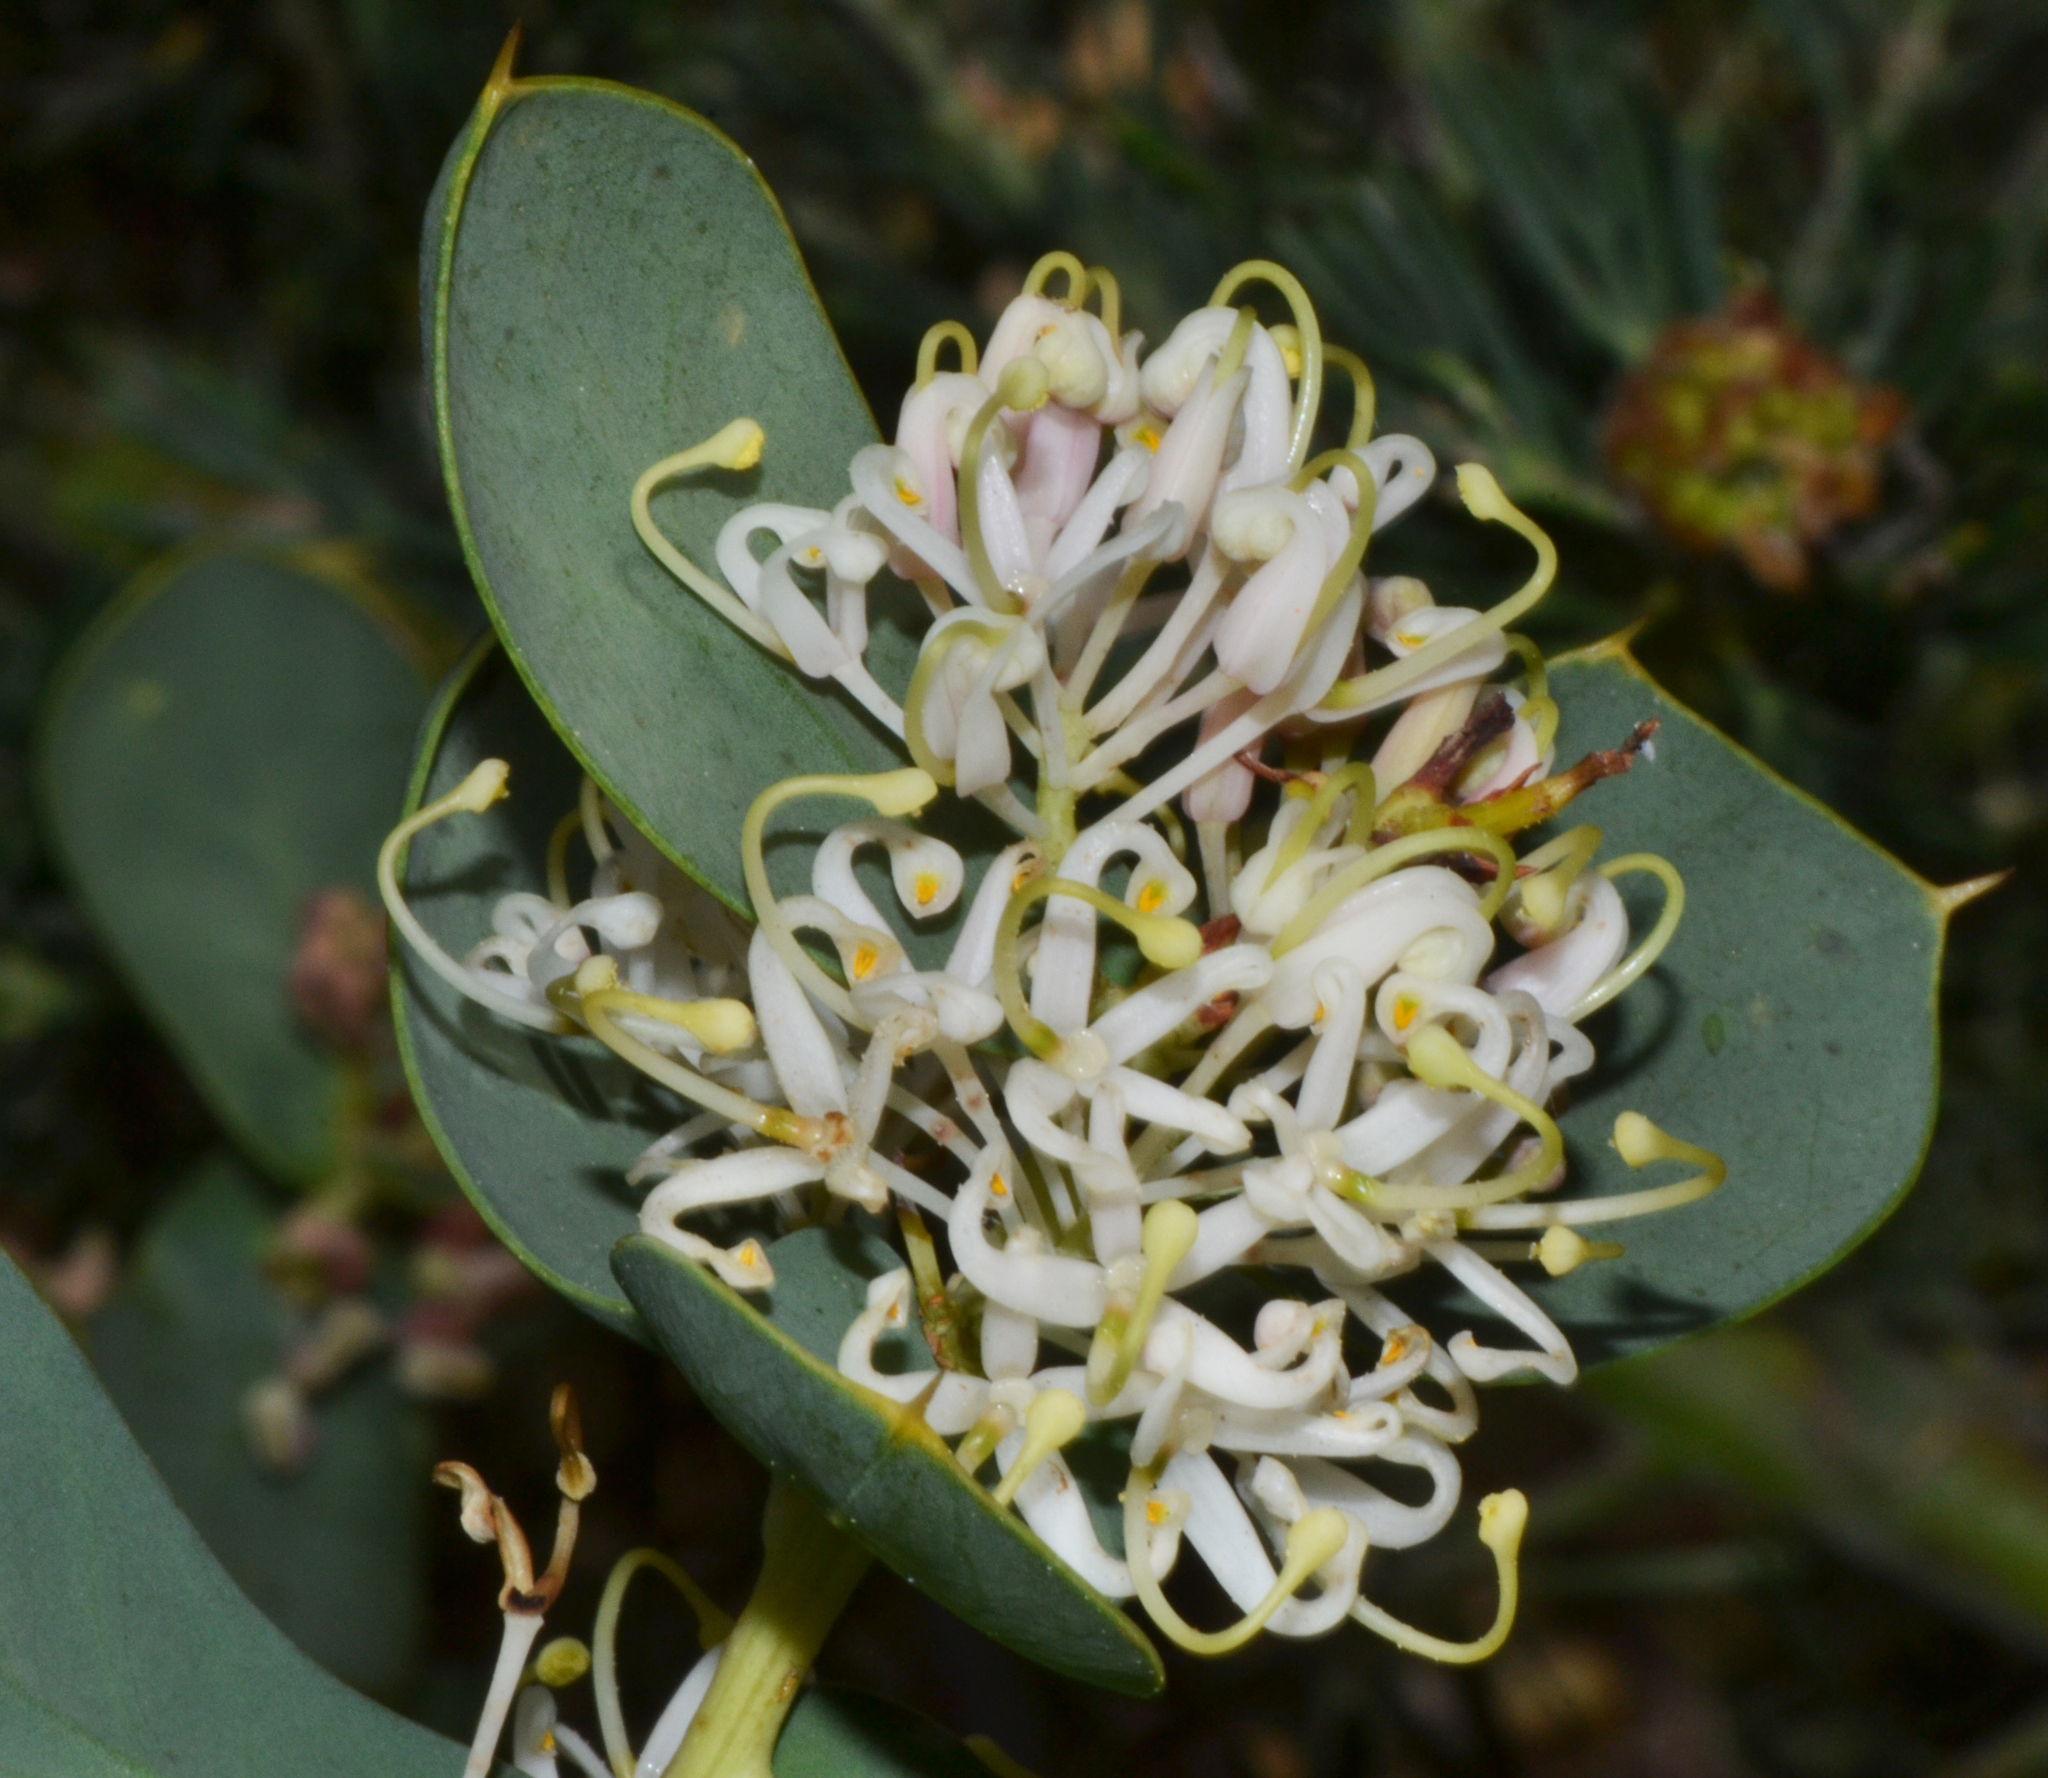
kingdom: Plantae
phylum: Tracheophyta
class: Magnoliopsida
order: Proteales
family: Proteaceae
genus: Hakea
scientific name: Hakea prostrata
